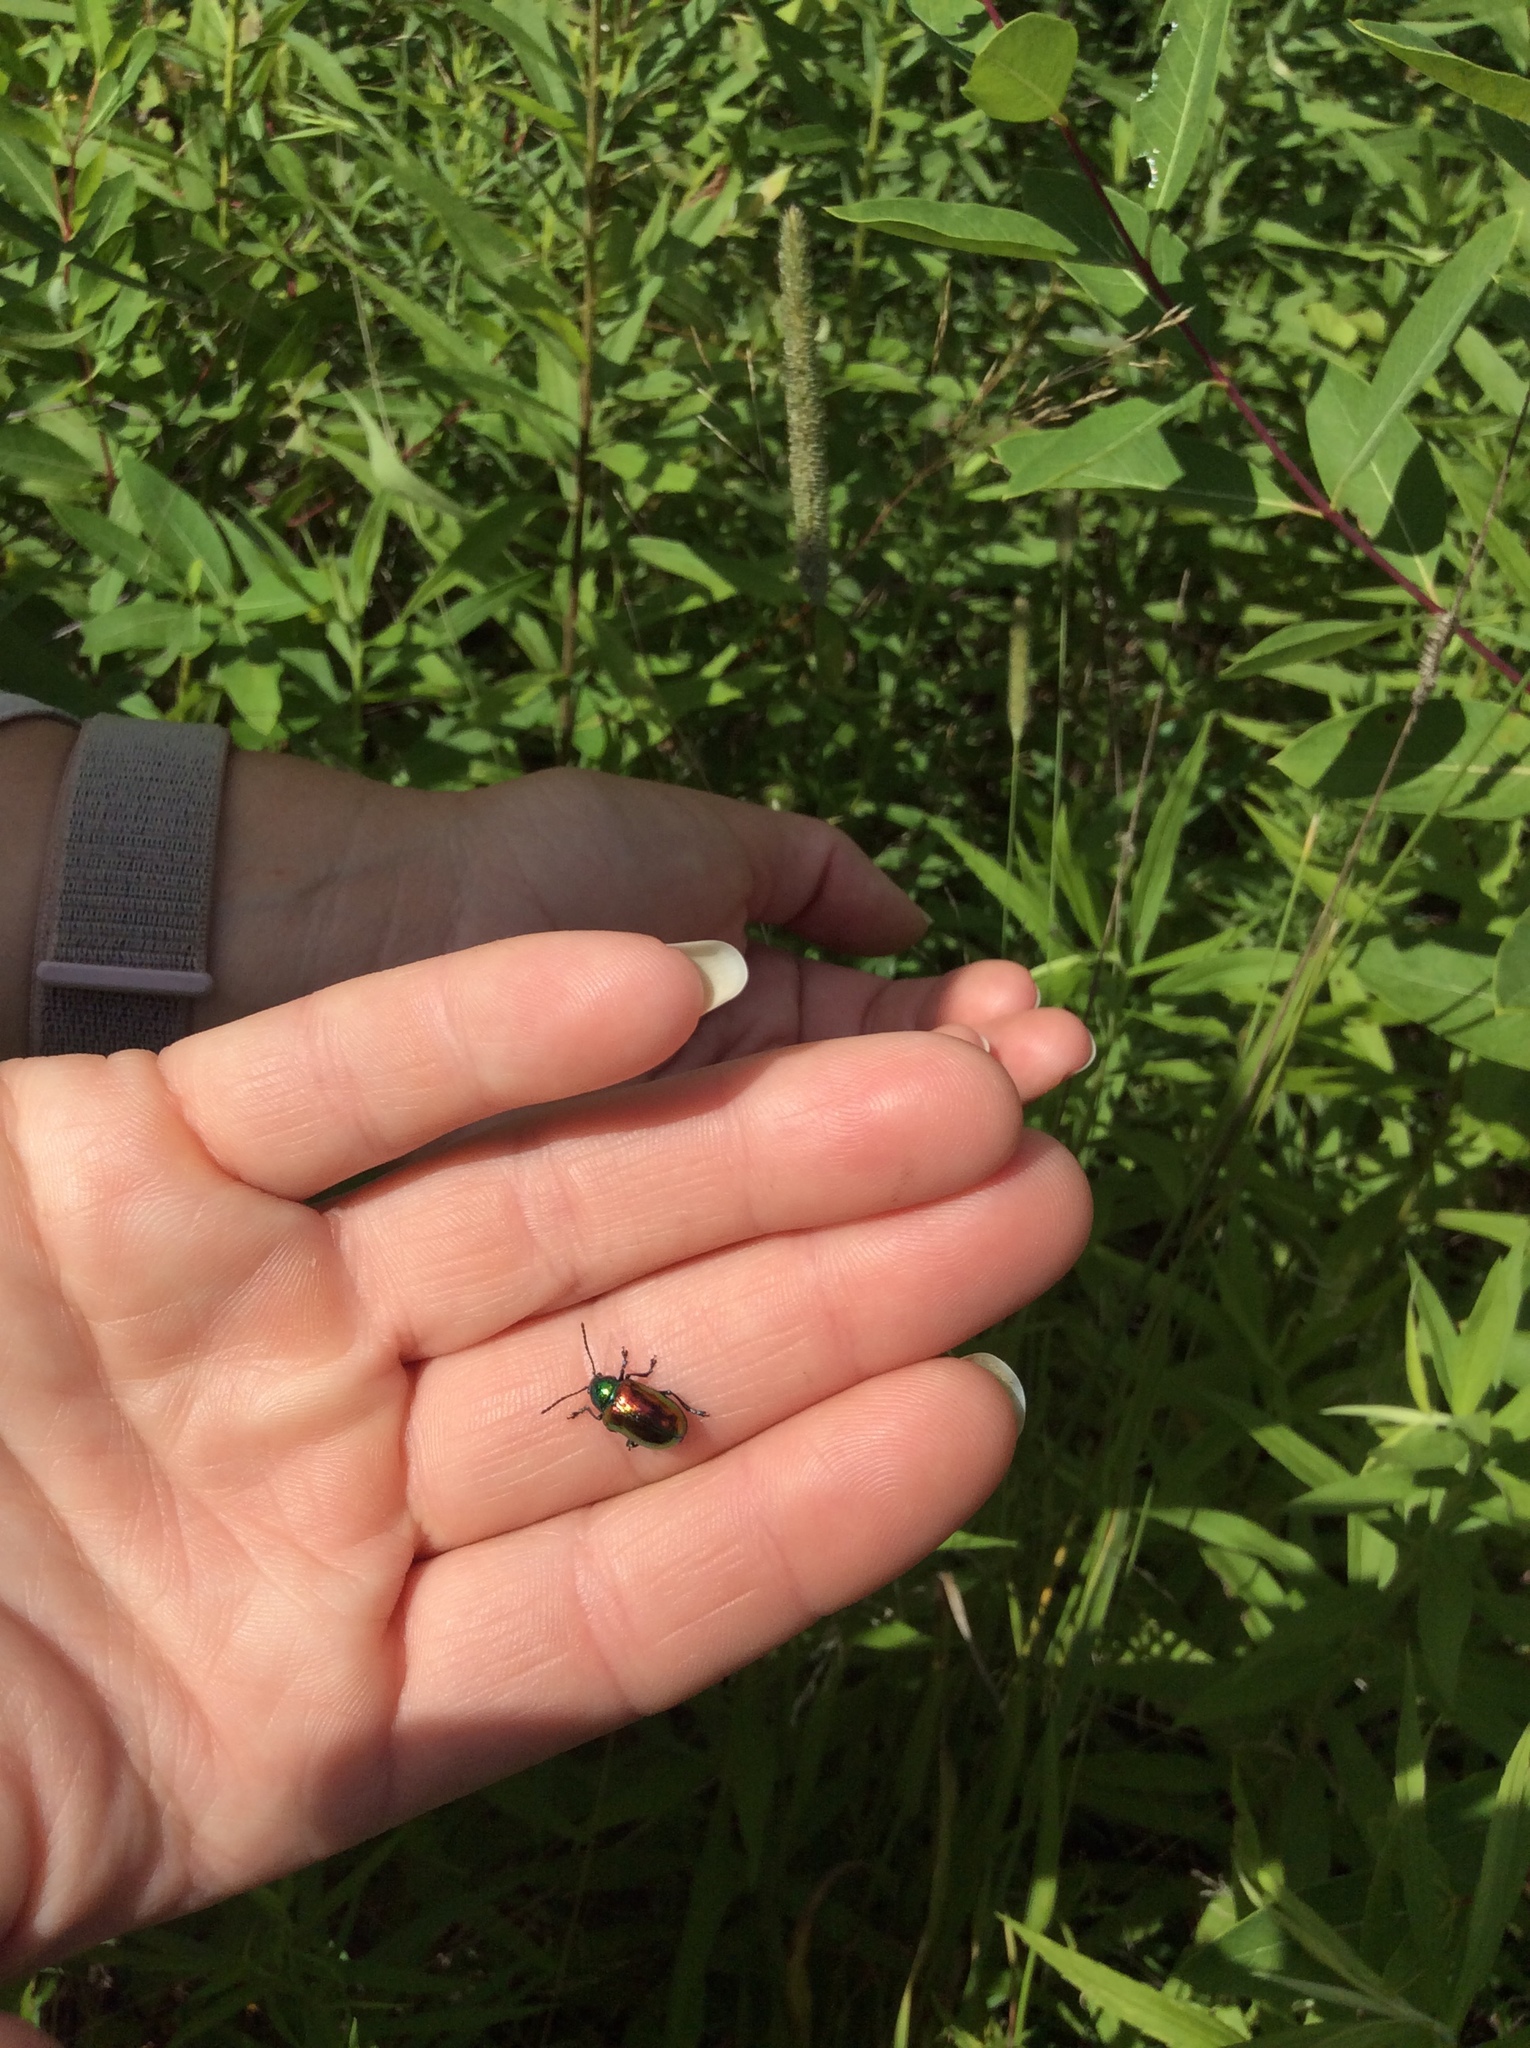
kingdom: Animalia
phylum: Arthropoda
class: Insecta
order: Coleoptera
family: Chrysomelidae
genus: Chrysochus
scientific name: Chrysochus auratus
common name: Dogbane leaf beetle
